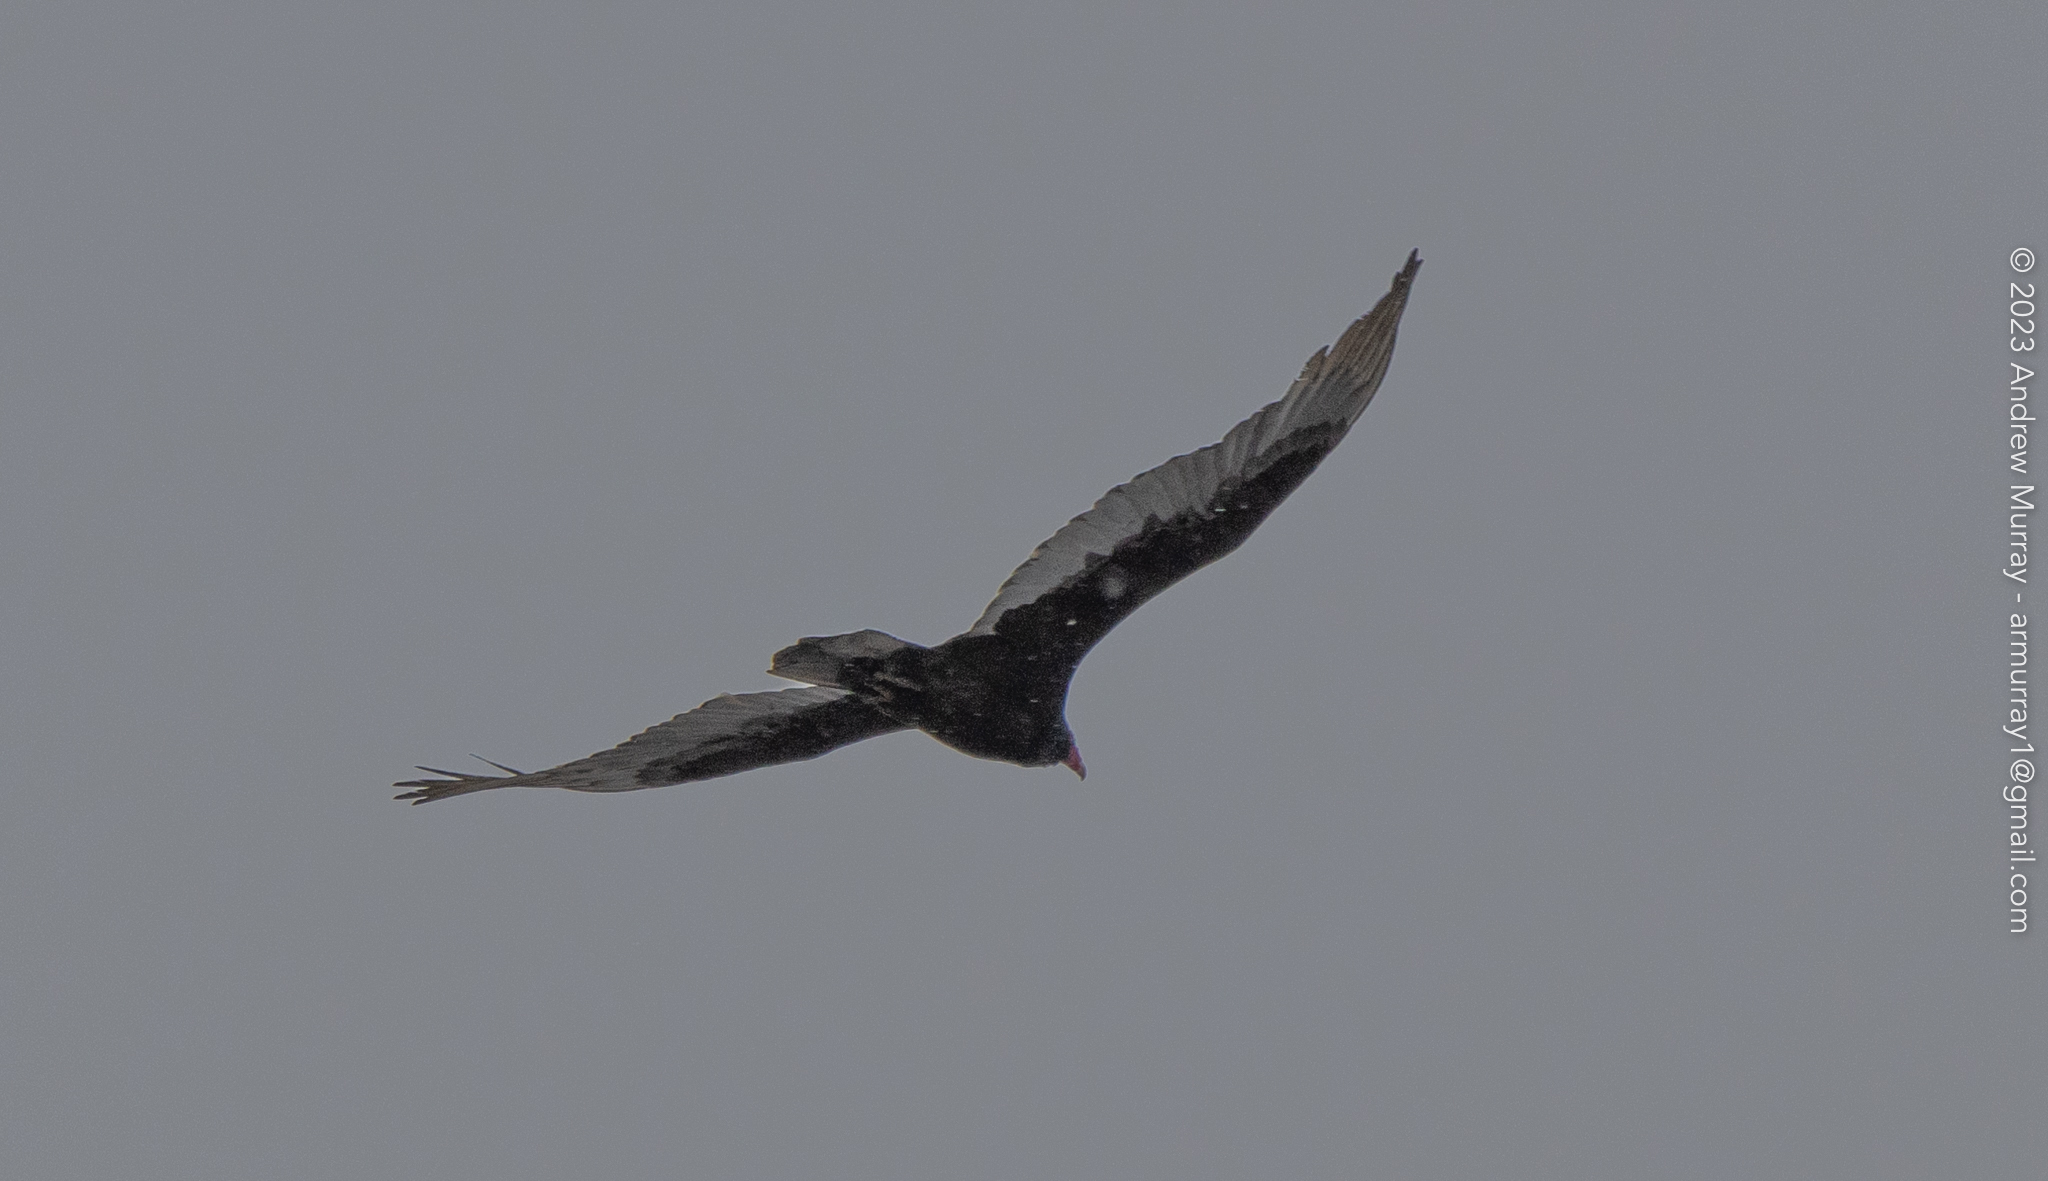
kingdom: Animalia
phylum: Chordata
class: Aves
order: Accipitriformes
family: Cathartidae
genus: Cathartes
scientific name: Cathartes aura
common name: Turkey vulture
